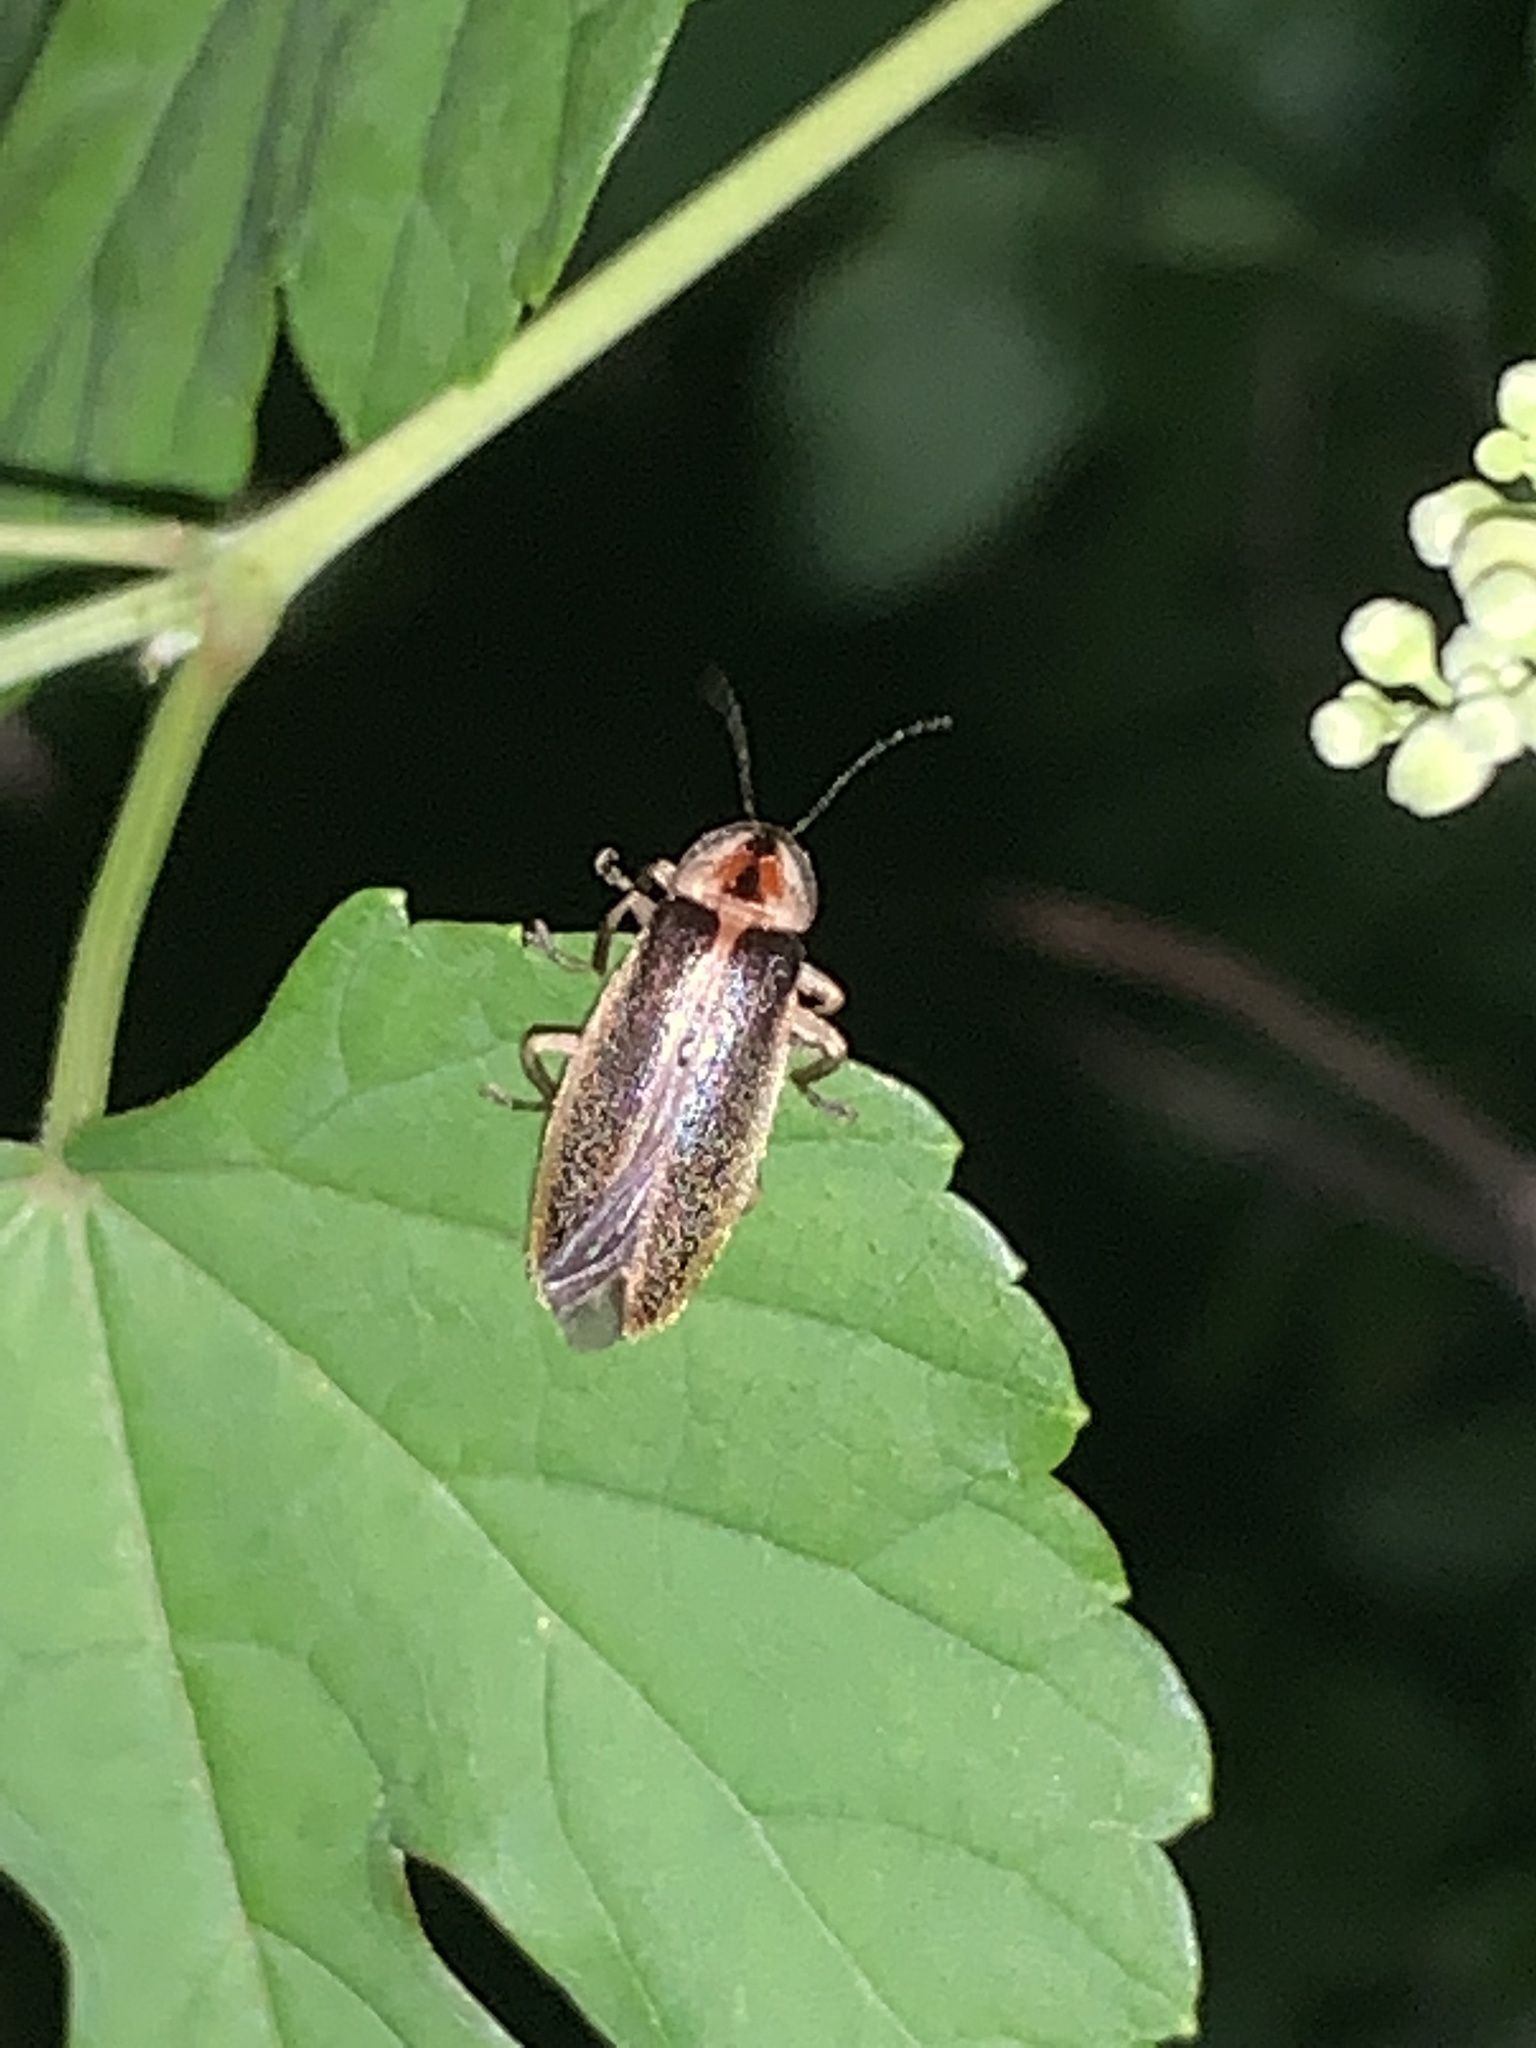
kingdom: Animalia
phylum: Arthropoda
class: Insecta
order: Coleoptera
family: Lampyridae
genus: Photuris
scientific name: Photuris
